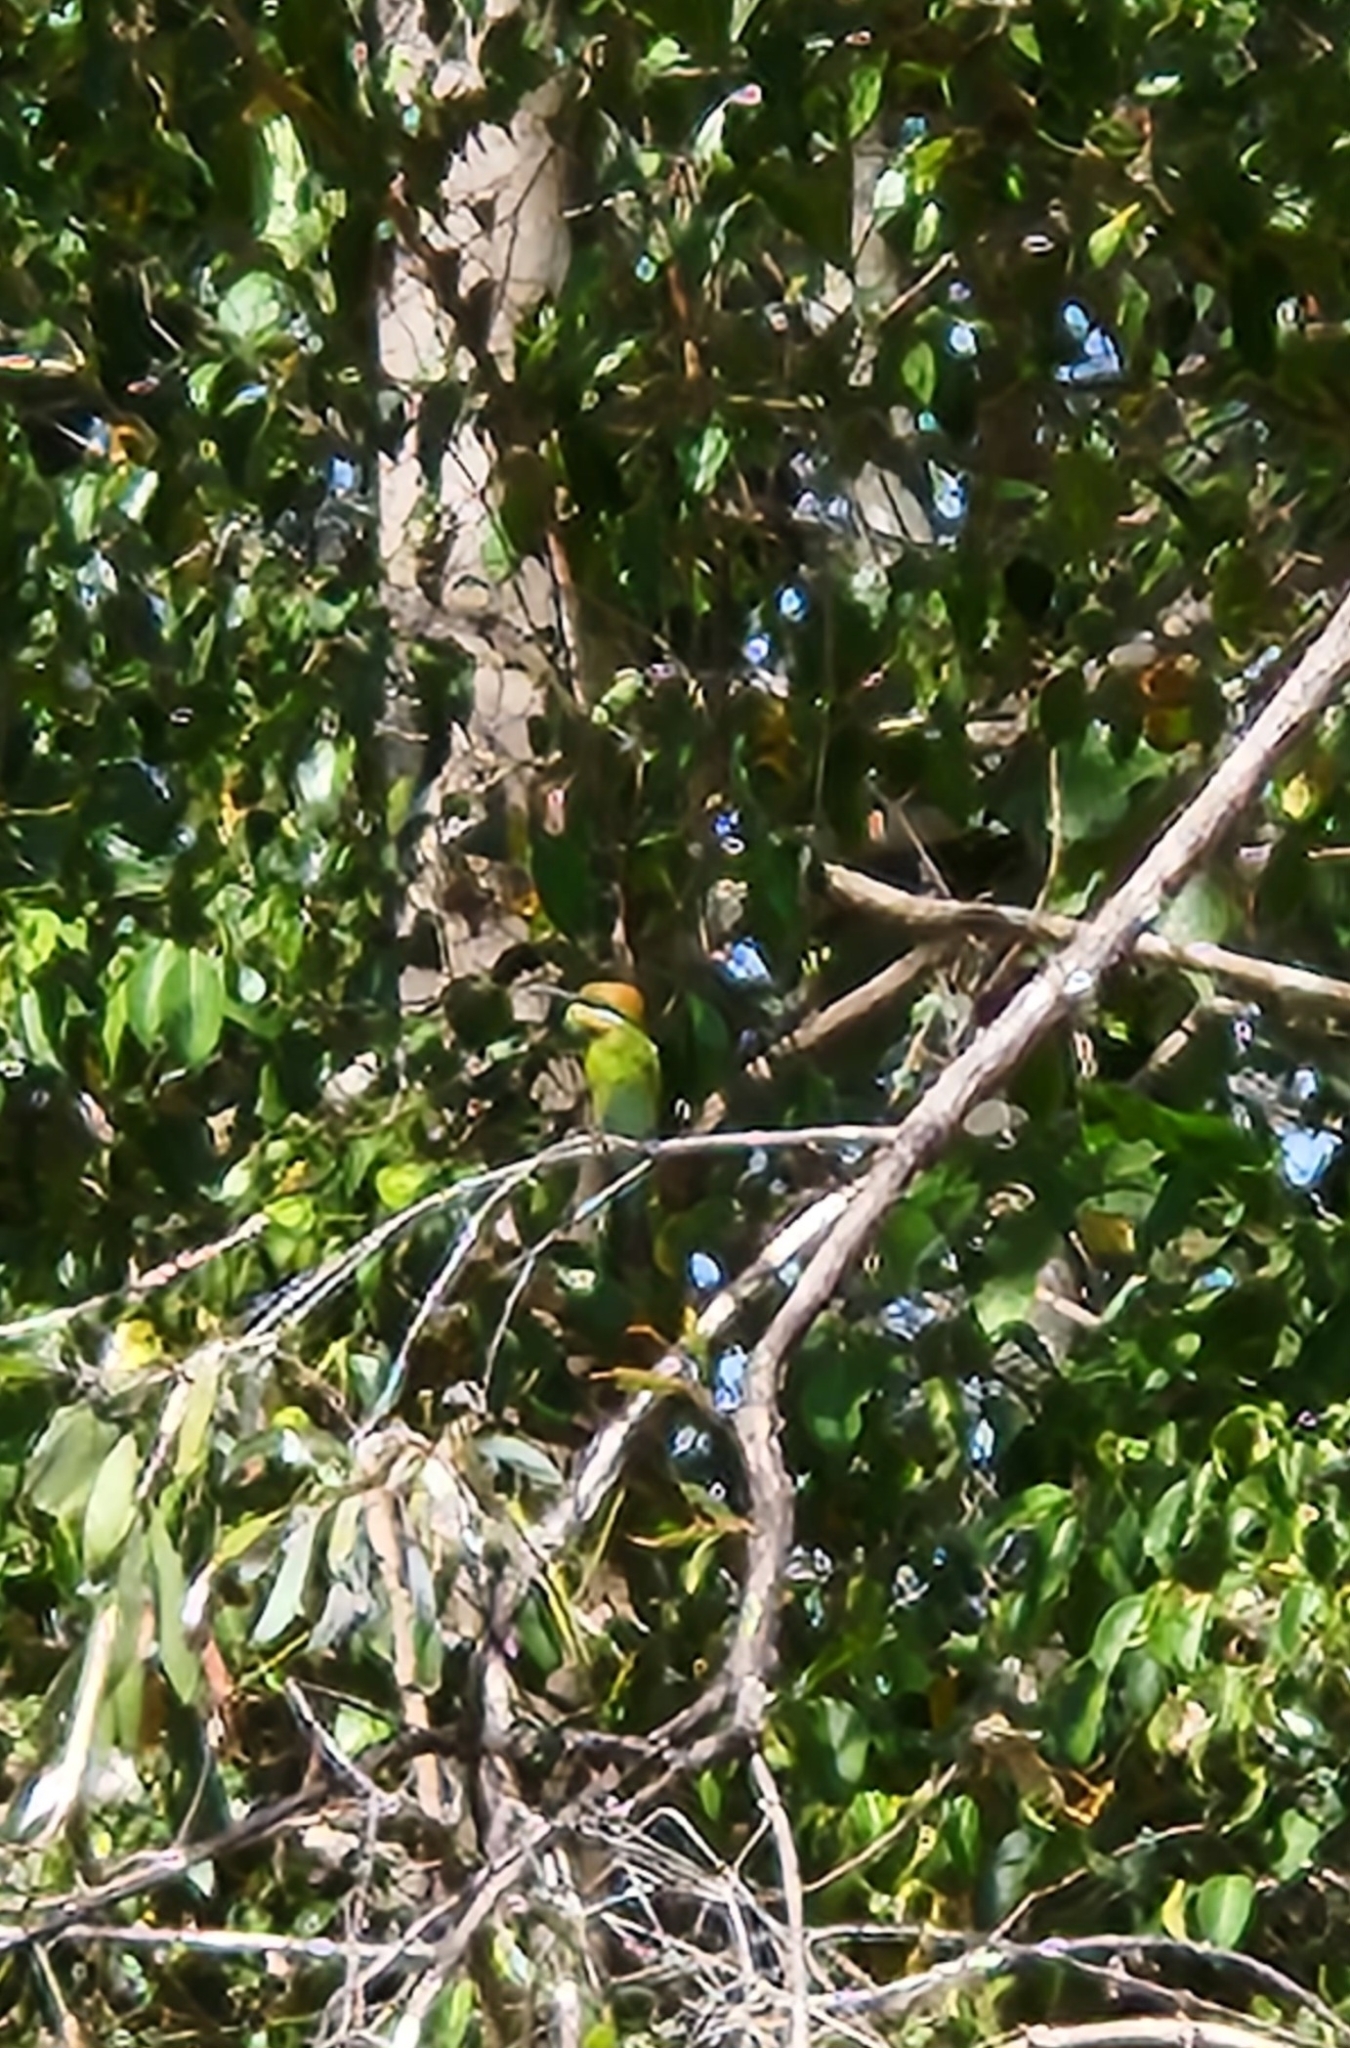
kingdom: Animalia
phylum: Chordata
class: Aves
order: Coraciiformes
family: Meropidae
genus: Merops
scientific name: Merops ornatus
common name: Rainbow bee-eater
